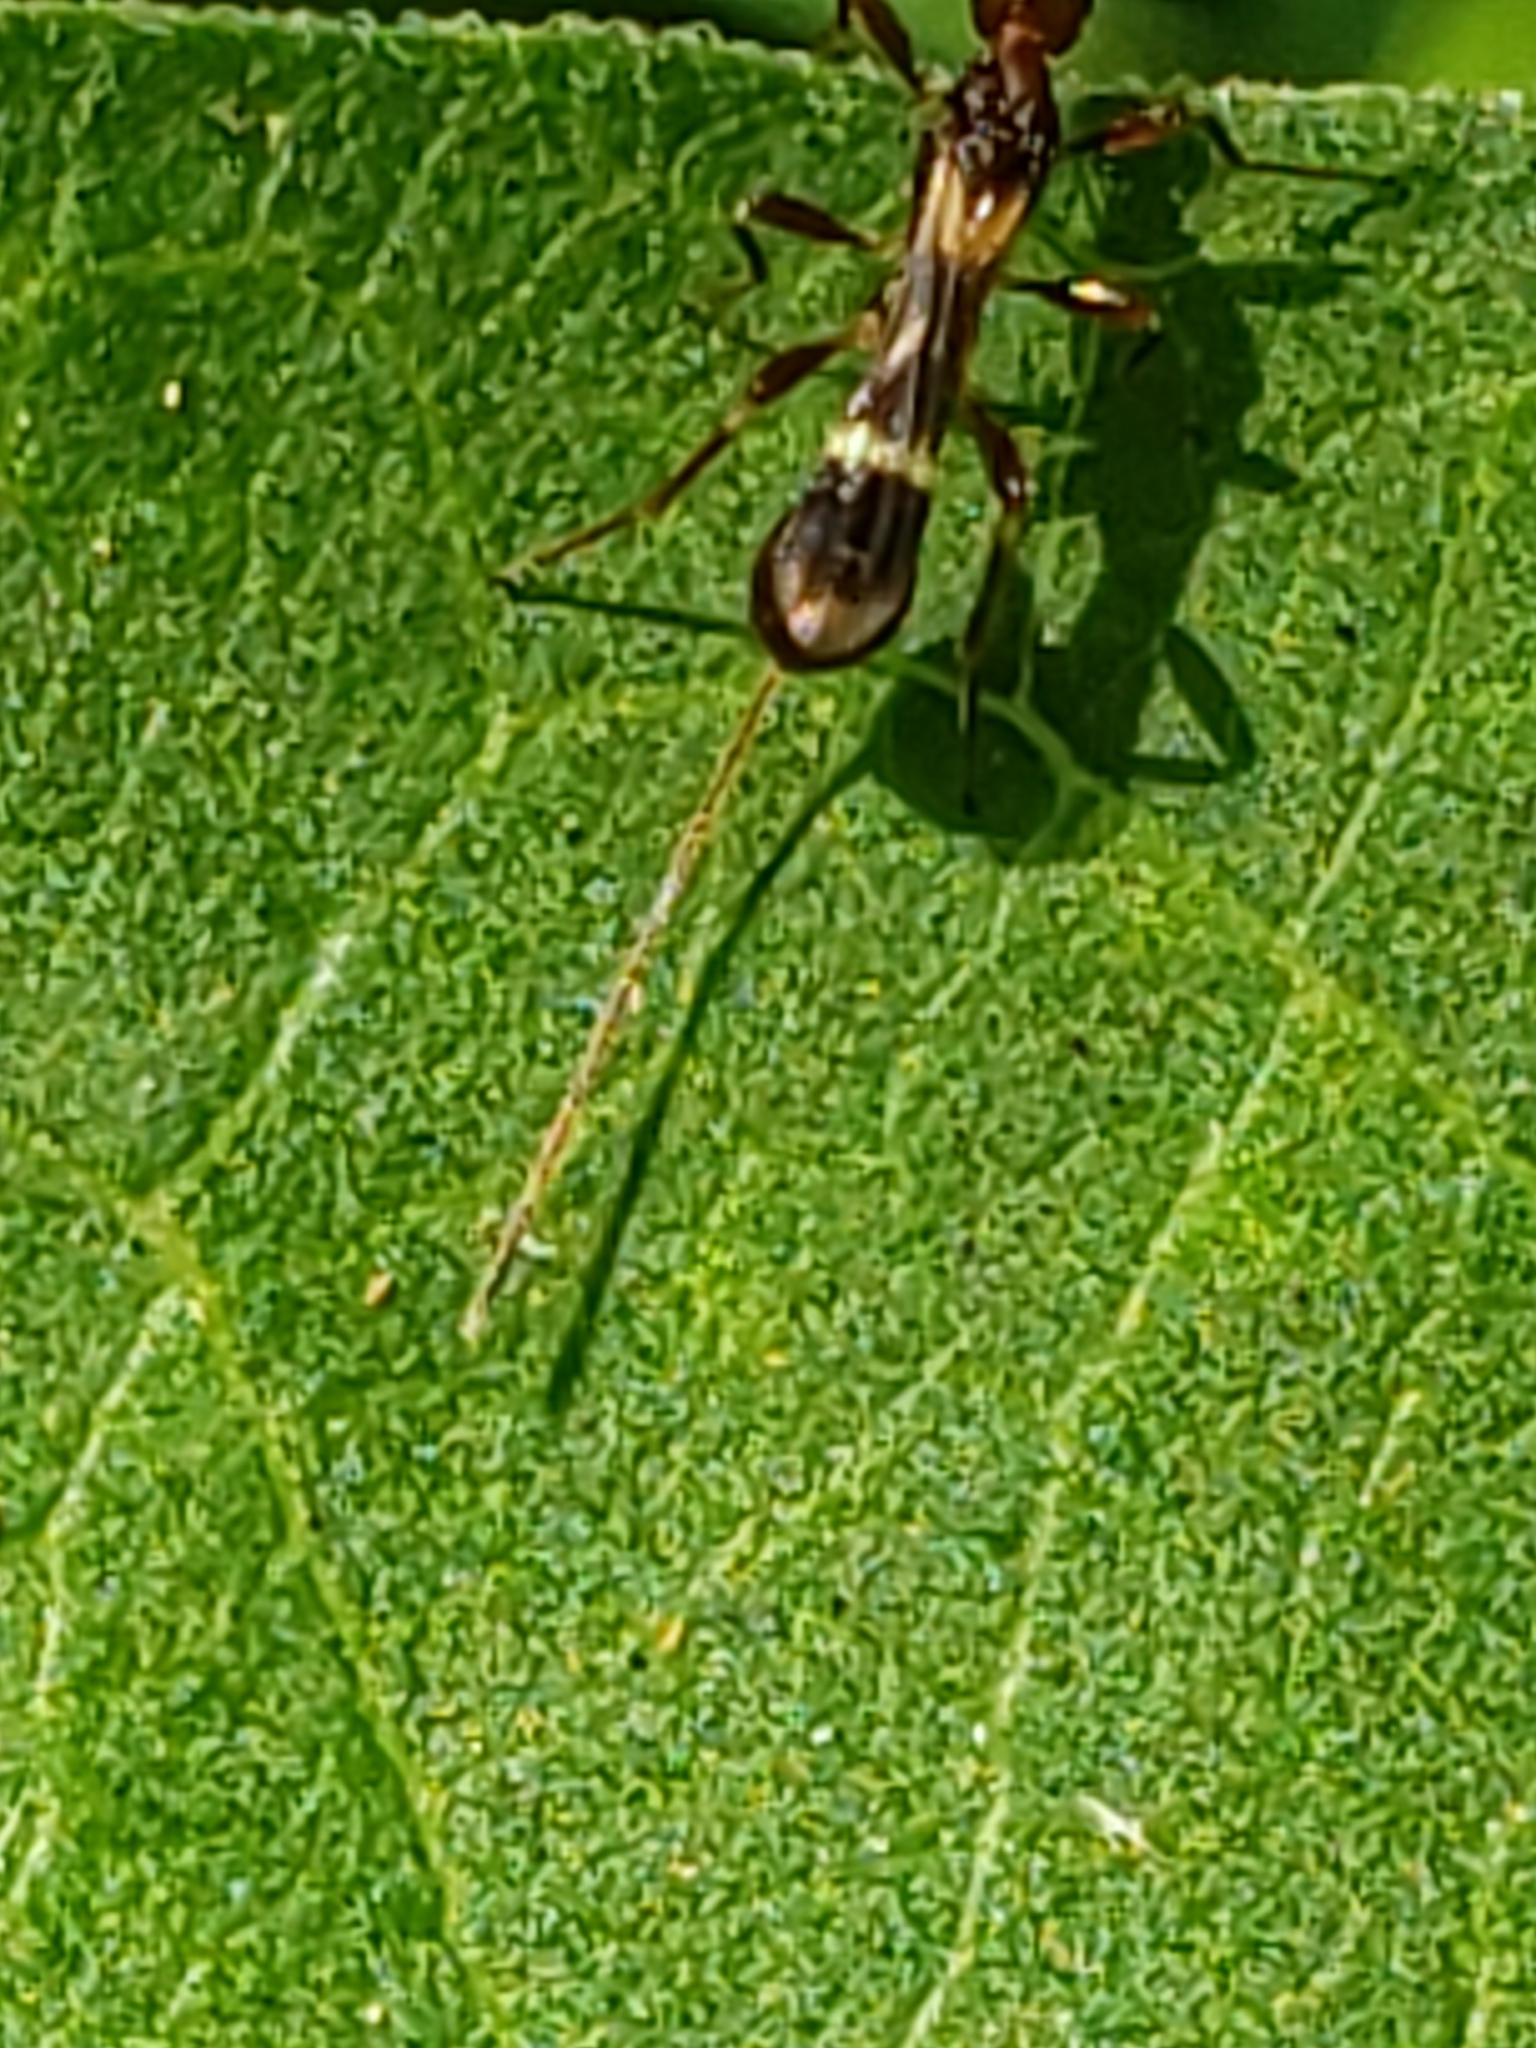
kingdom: Animalia
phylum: Arthropoda
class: Insecta
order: Hymenoptera
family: Braconidae
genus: Spathius
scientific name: Spathius elegans
